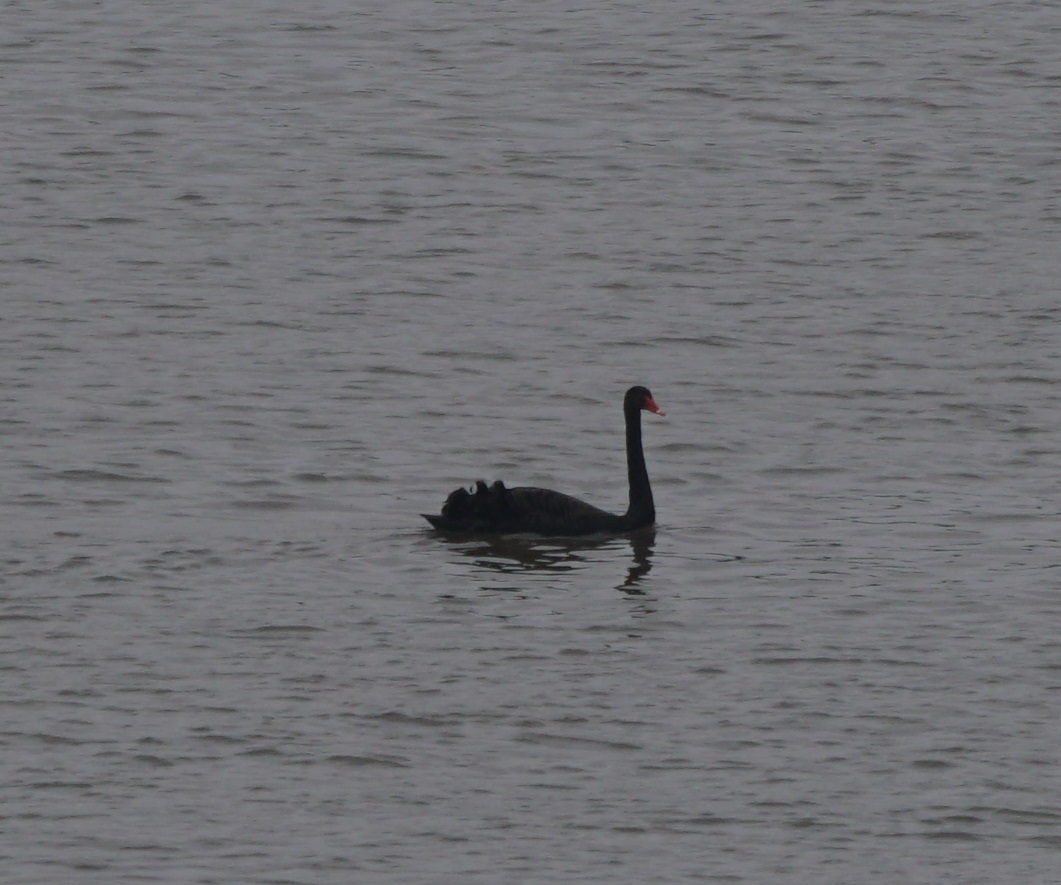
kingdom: Animalia
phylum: Chordata
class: Aves
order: Anseriformes
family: Anatidae
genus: Cygnus
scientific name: Cygnus atratus
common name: Black swan
